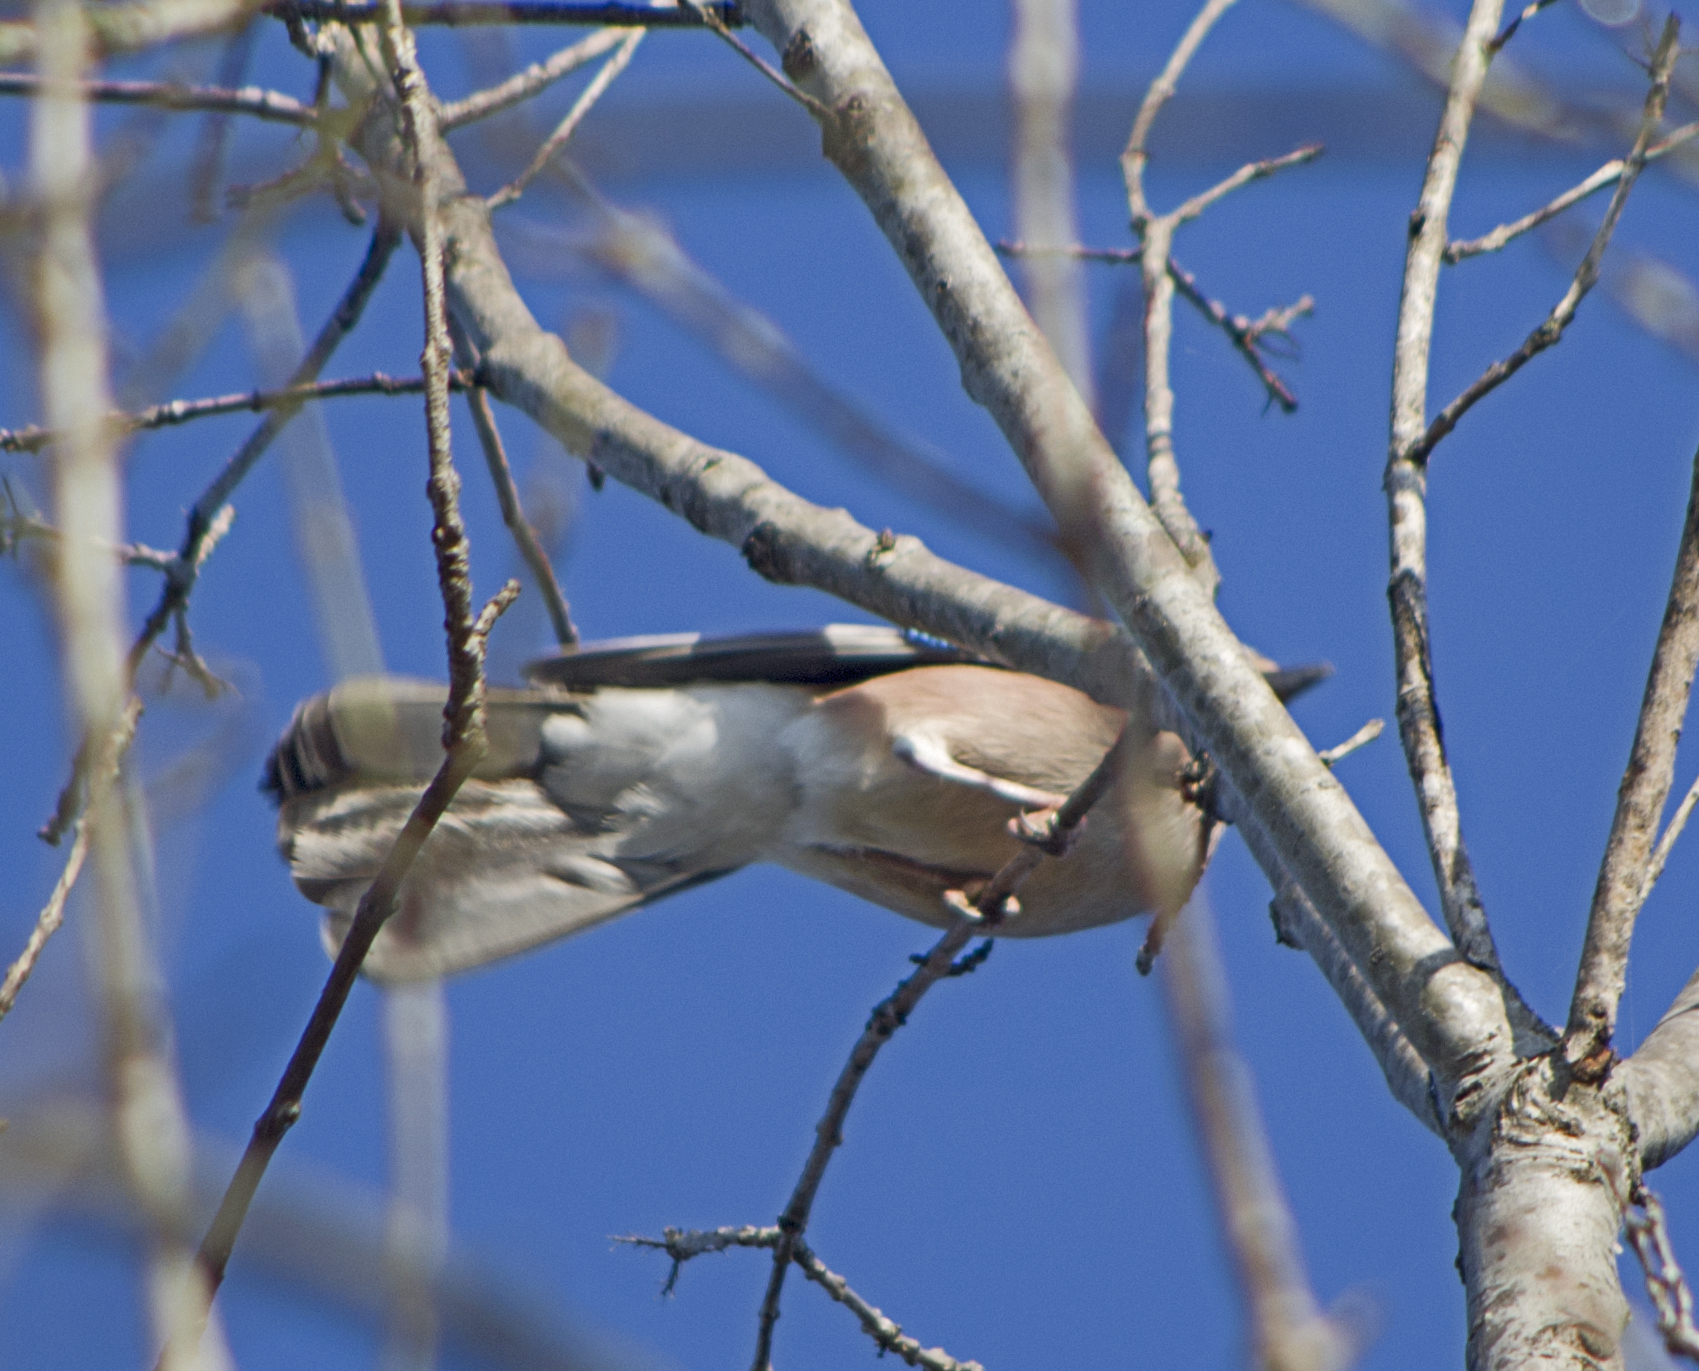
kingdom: Animalia
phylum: Chordata
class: Aves
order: Passeriformes
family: Corvidae
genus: Garrulus
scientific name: Garrulus glandarius
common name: Eurasian jay
